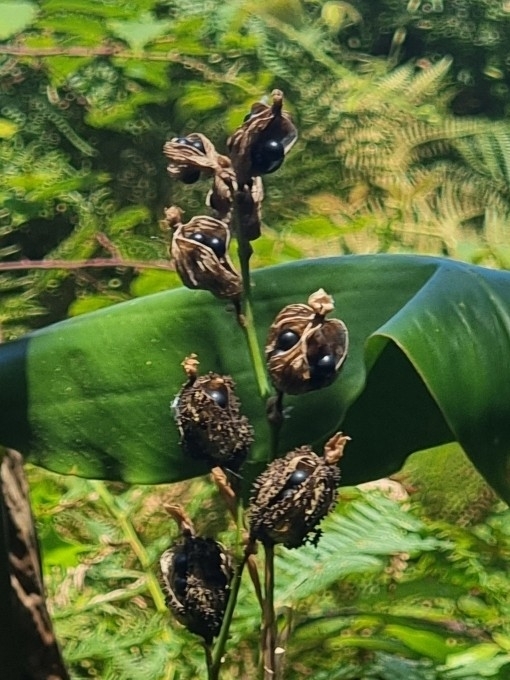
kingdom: Plantae
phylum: Tracheophyta
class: Liliopsida
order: Zingiberales
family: Cannaceae
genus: Canna
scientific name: Canna indica
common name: Indian shot
